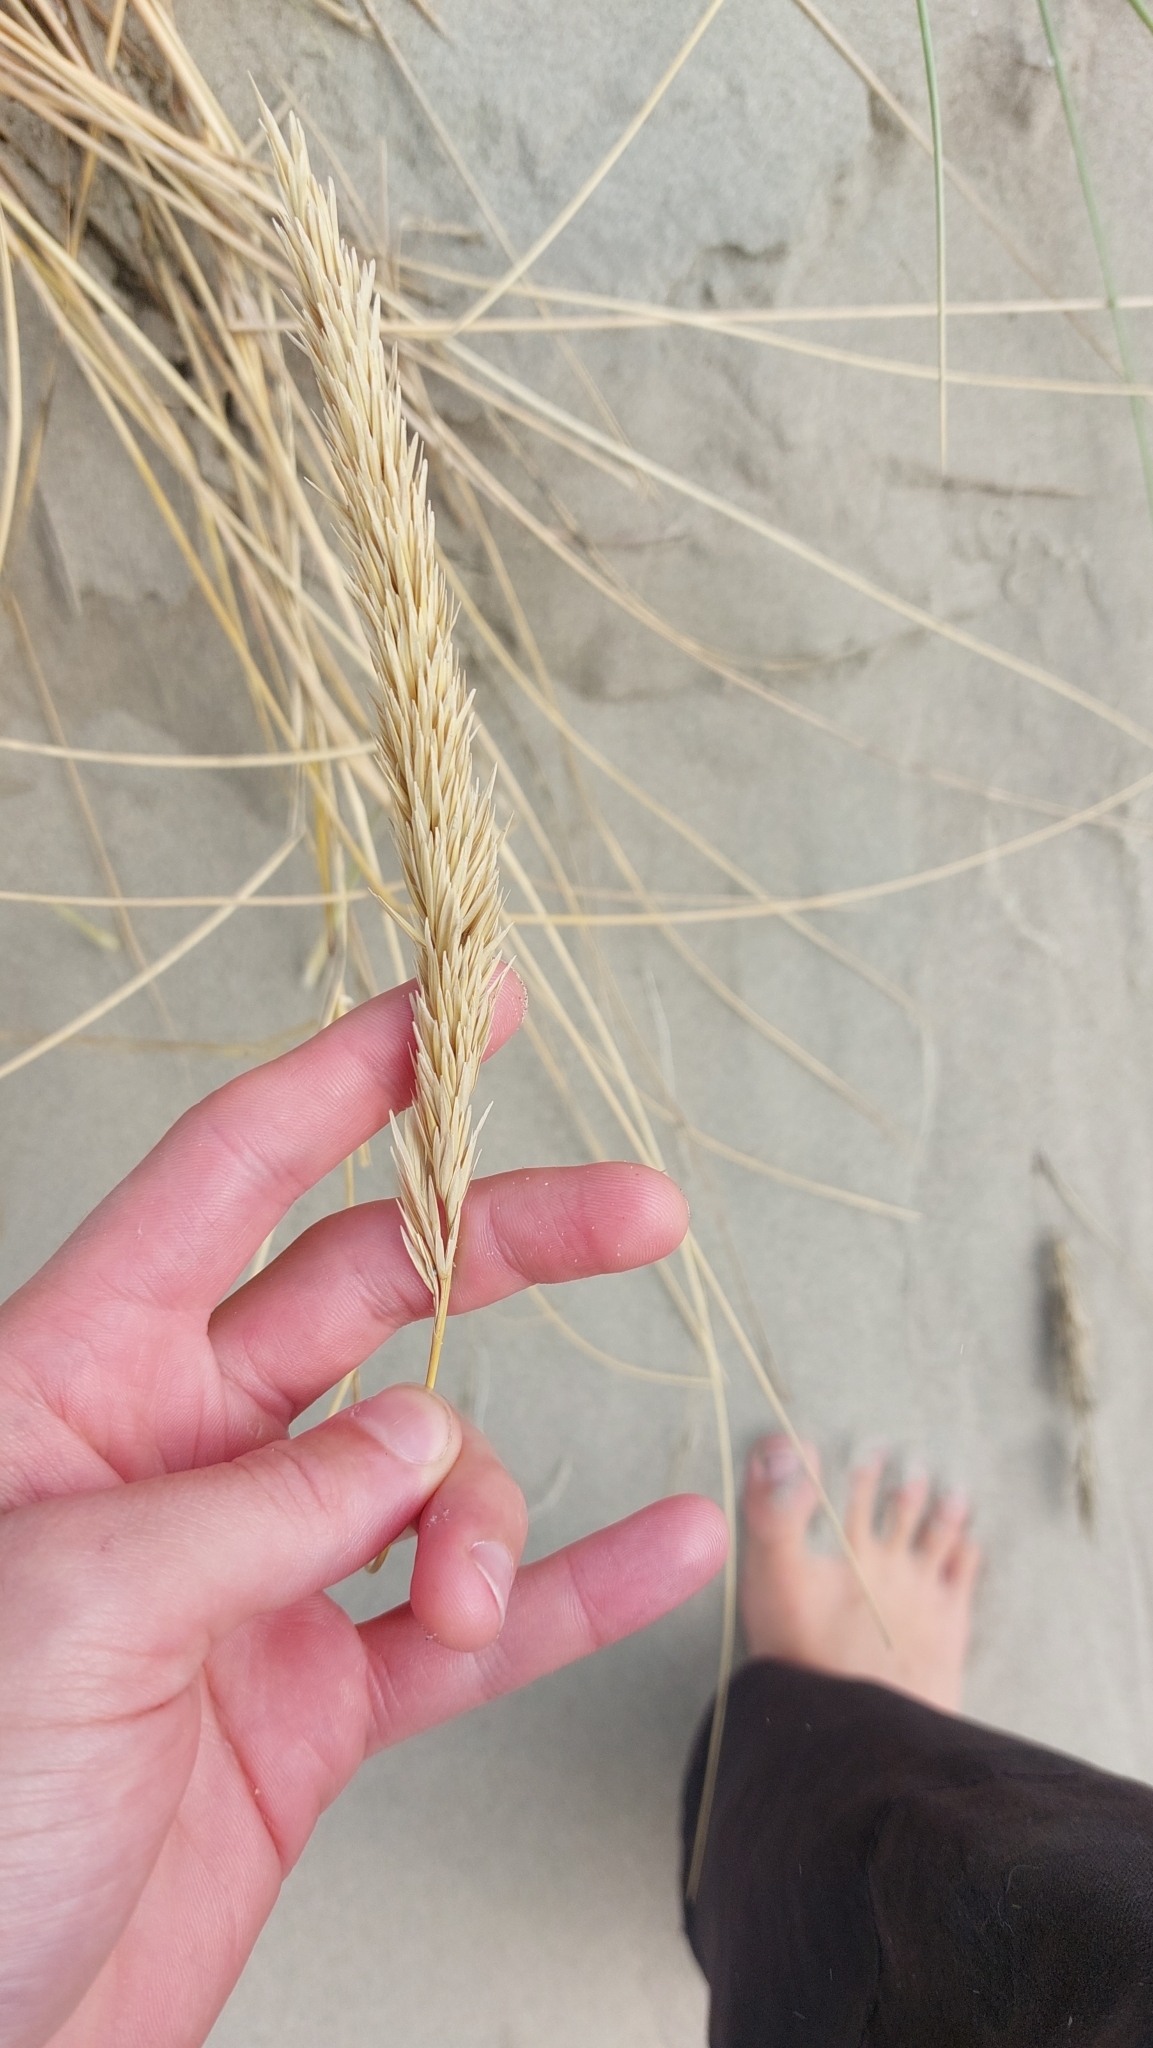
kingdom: Plantae
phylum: Tracheophyta
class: Liliopsida
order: Poales
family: Poaceae
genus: Calamagrostis
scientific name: Calamagrostis arenaria
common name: European beachgrass
